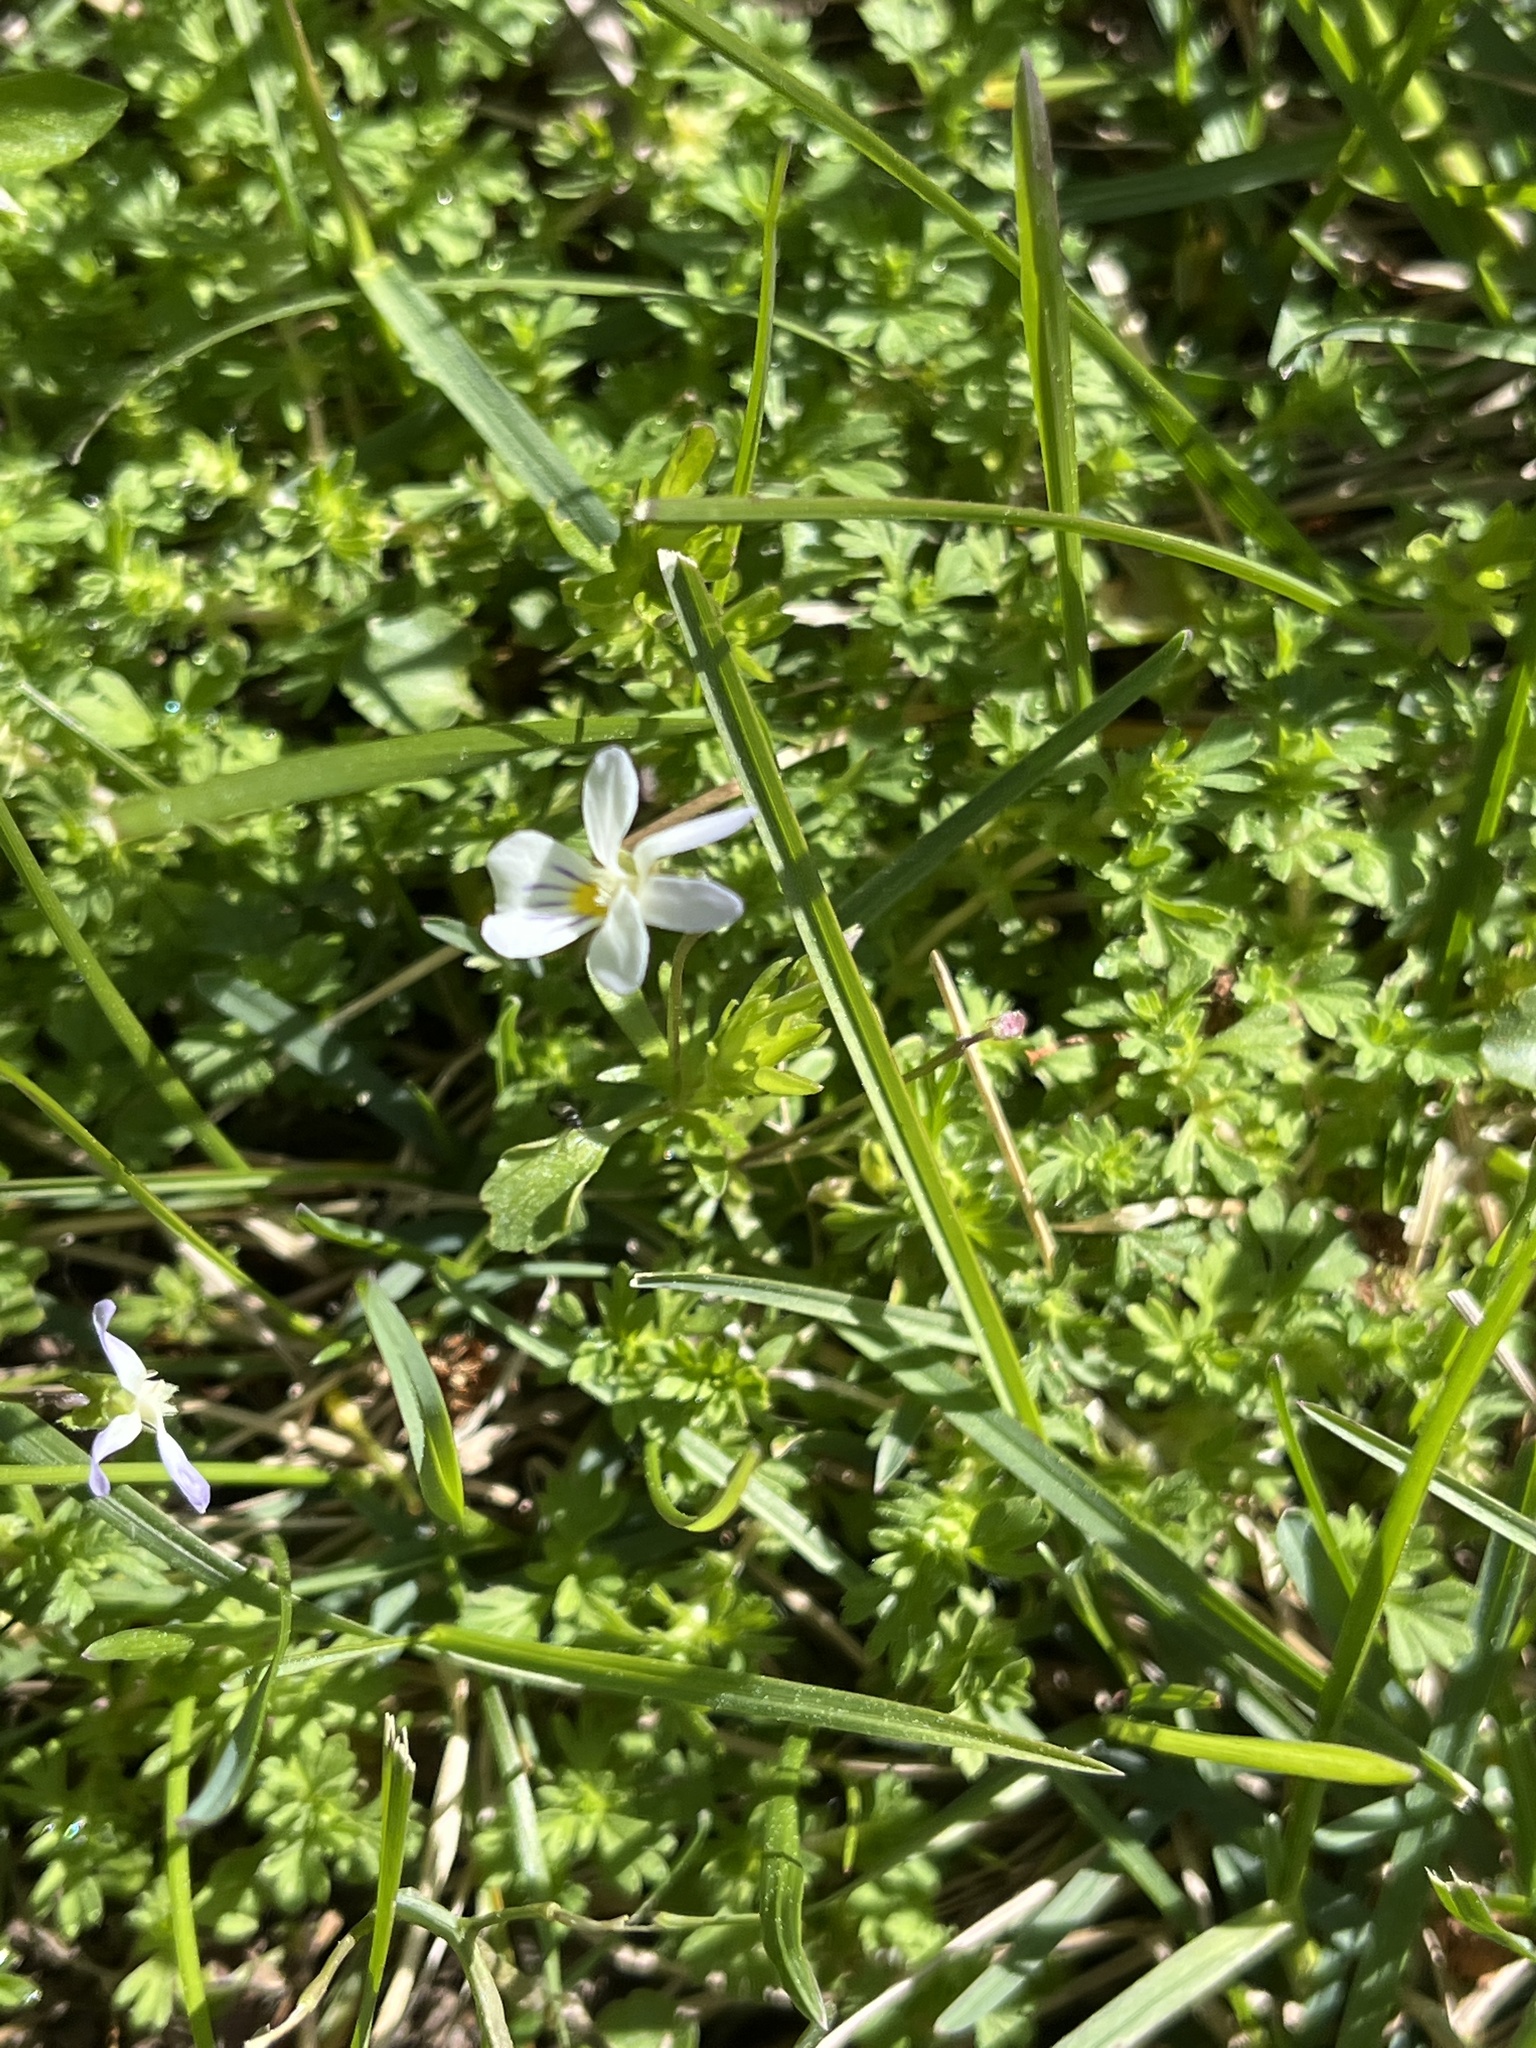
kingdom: Plantae
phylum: Tracheophyta
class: Magnoliopsida
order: Malpighiales
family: Violaceae
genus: Viola
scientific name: Viola rafinesquei
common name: American field pansy
